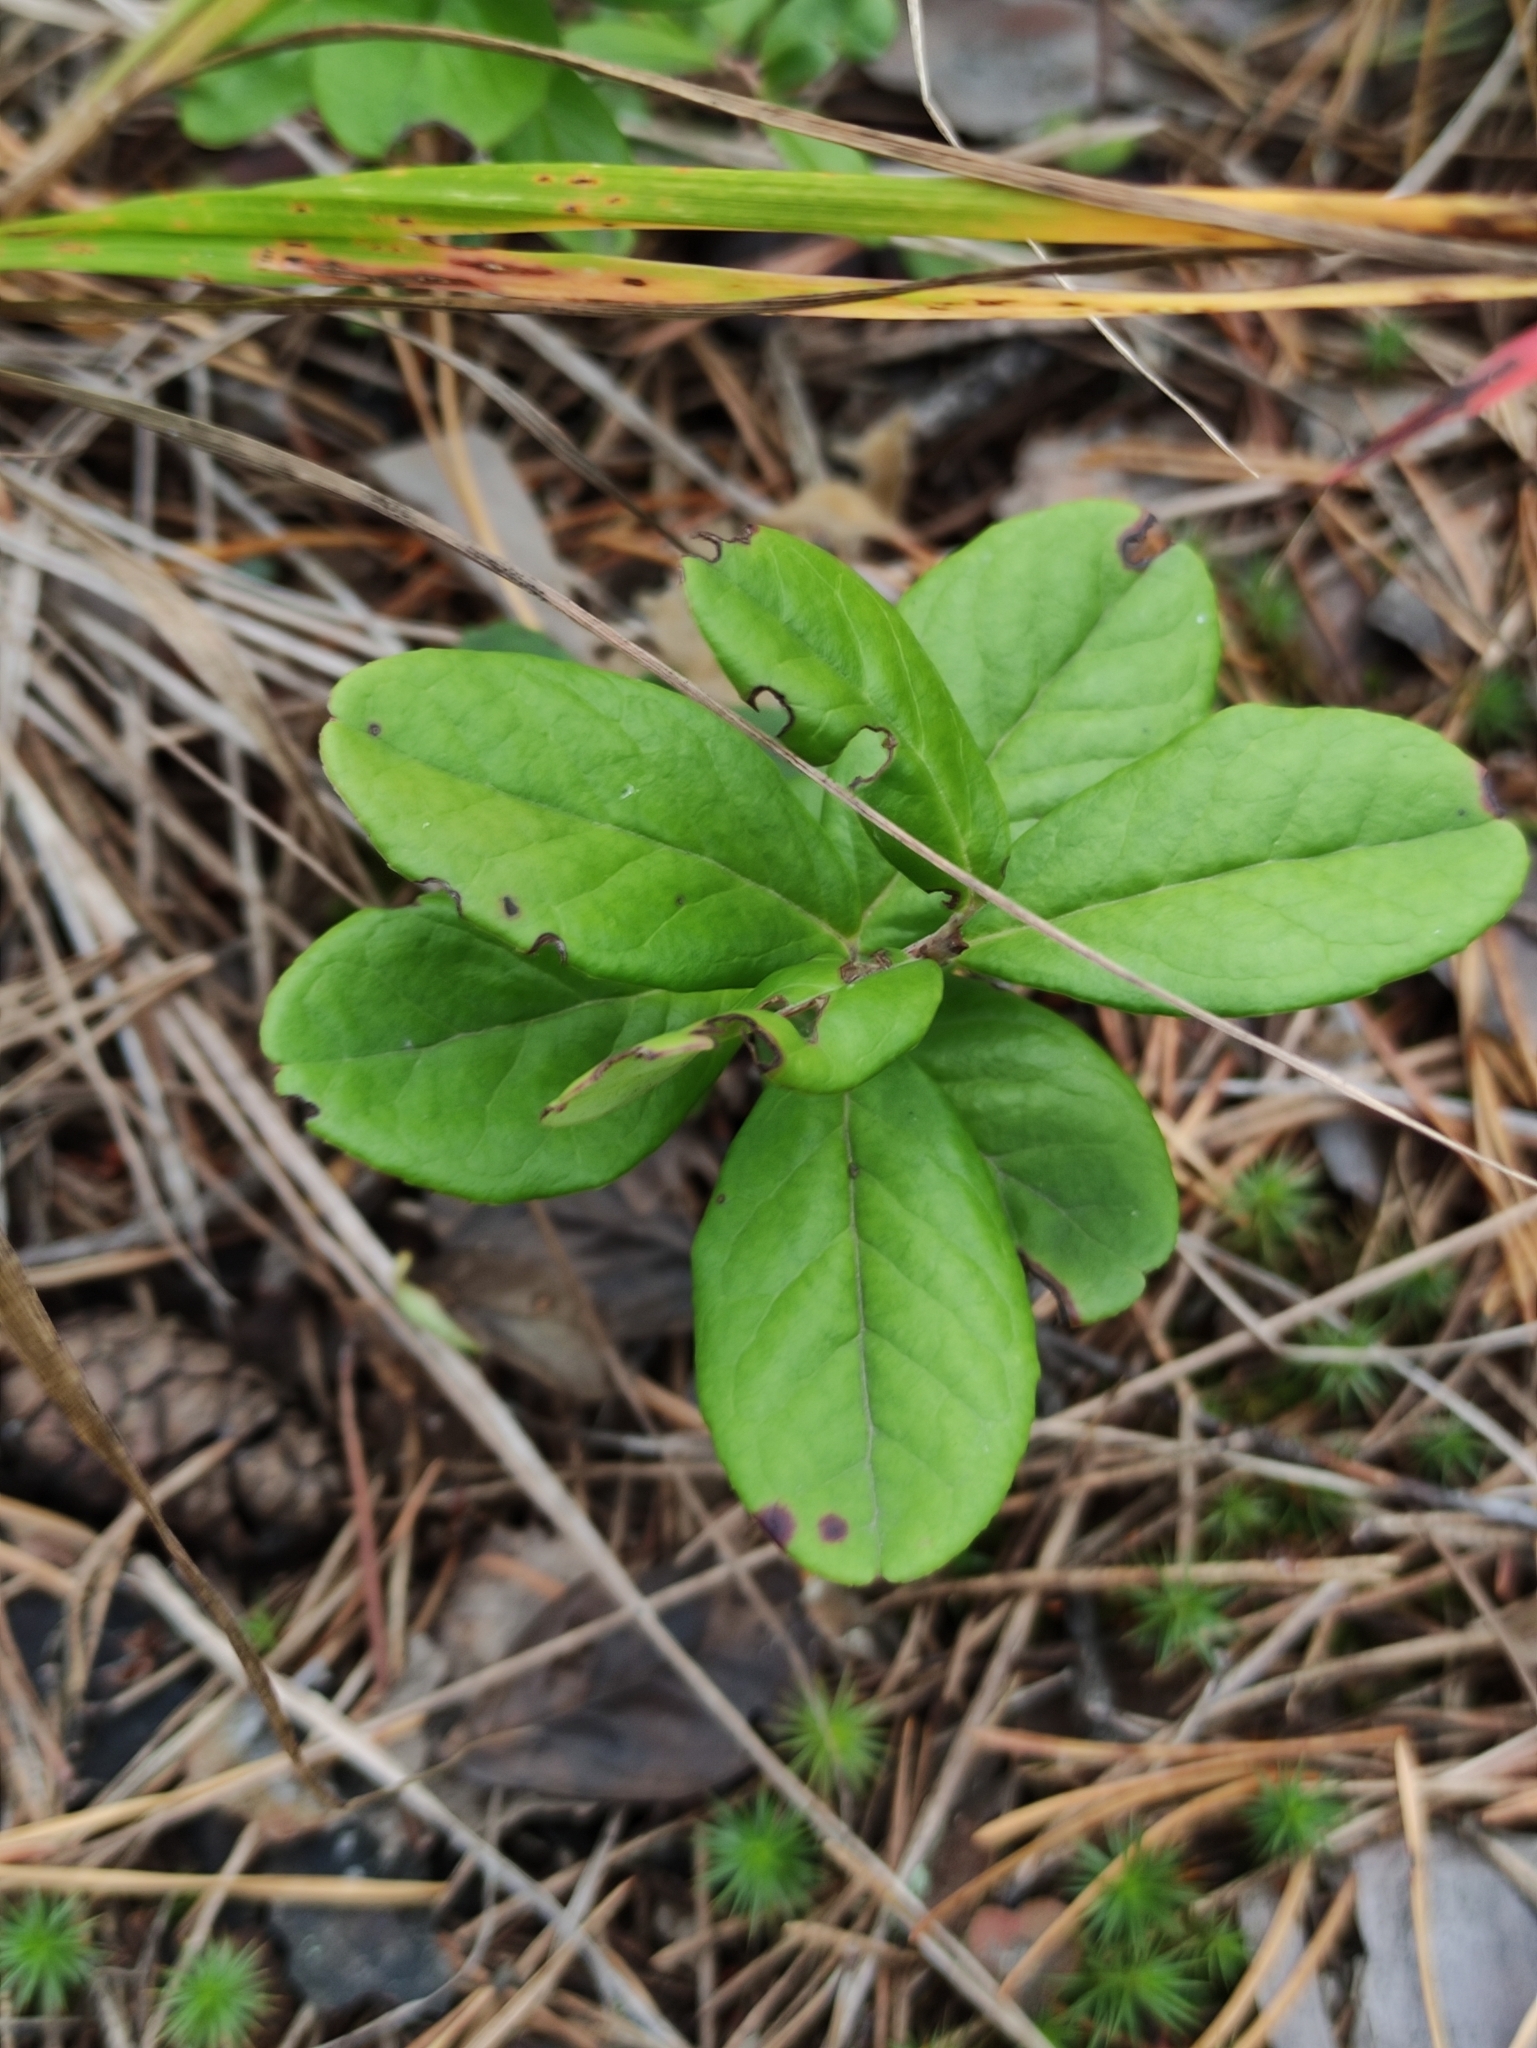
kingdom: Plantae
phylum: Tracheophyta
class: Magnoliopsida
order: Ericales
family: Ericaceae
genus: Vaccinium
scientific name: Vaccinium vitis-idaea
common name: Cowberry
